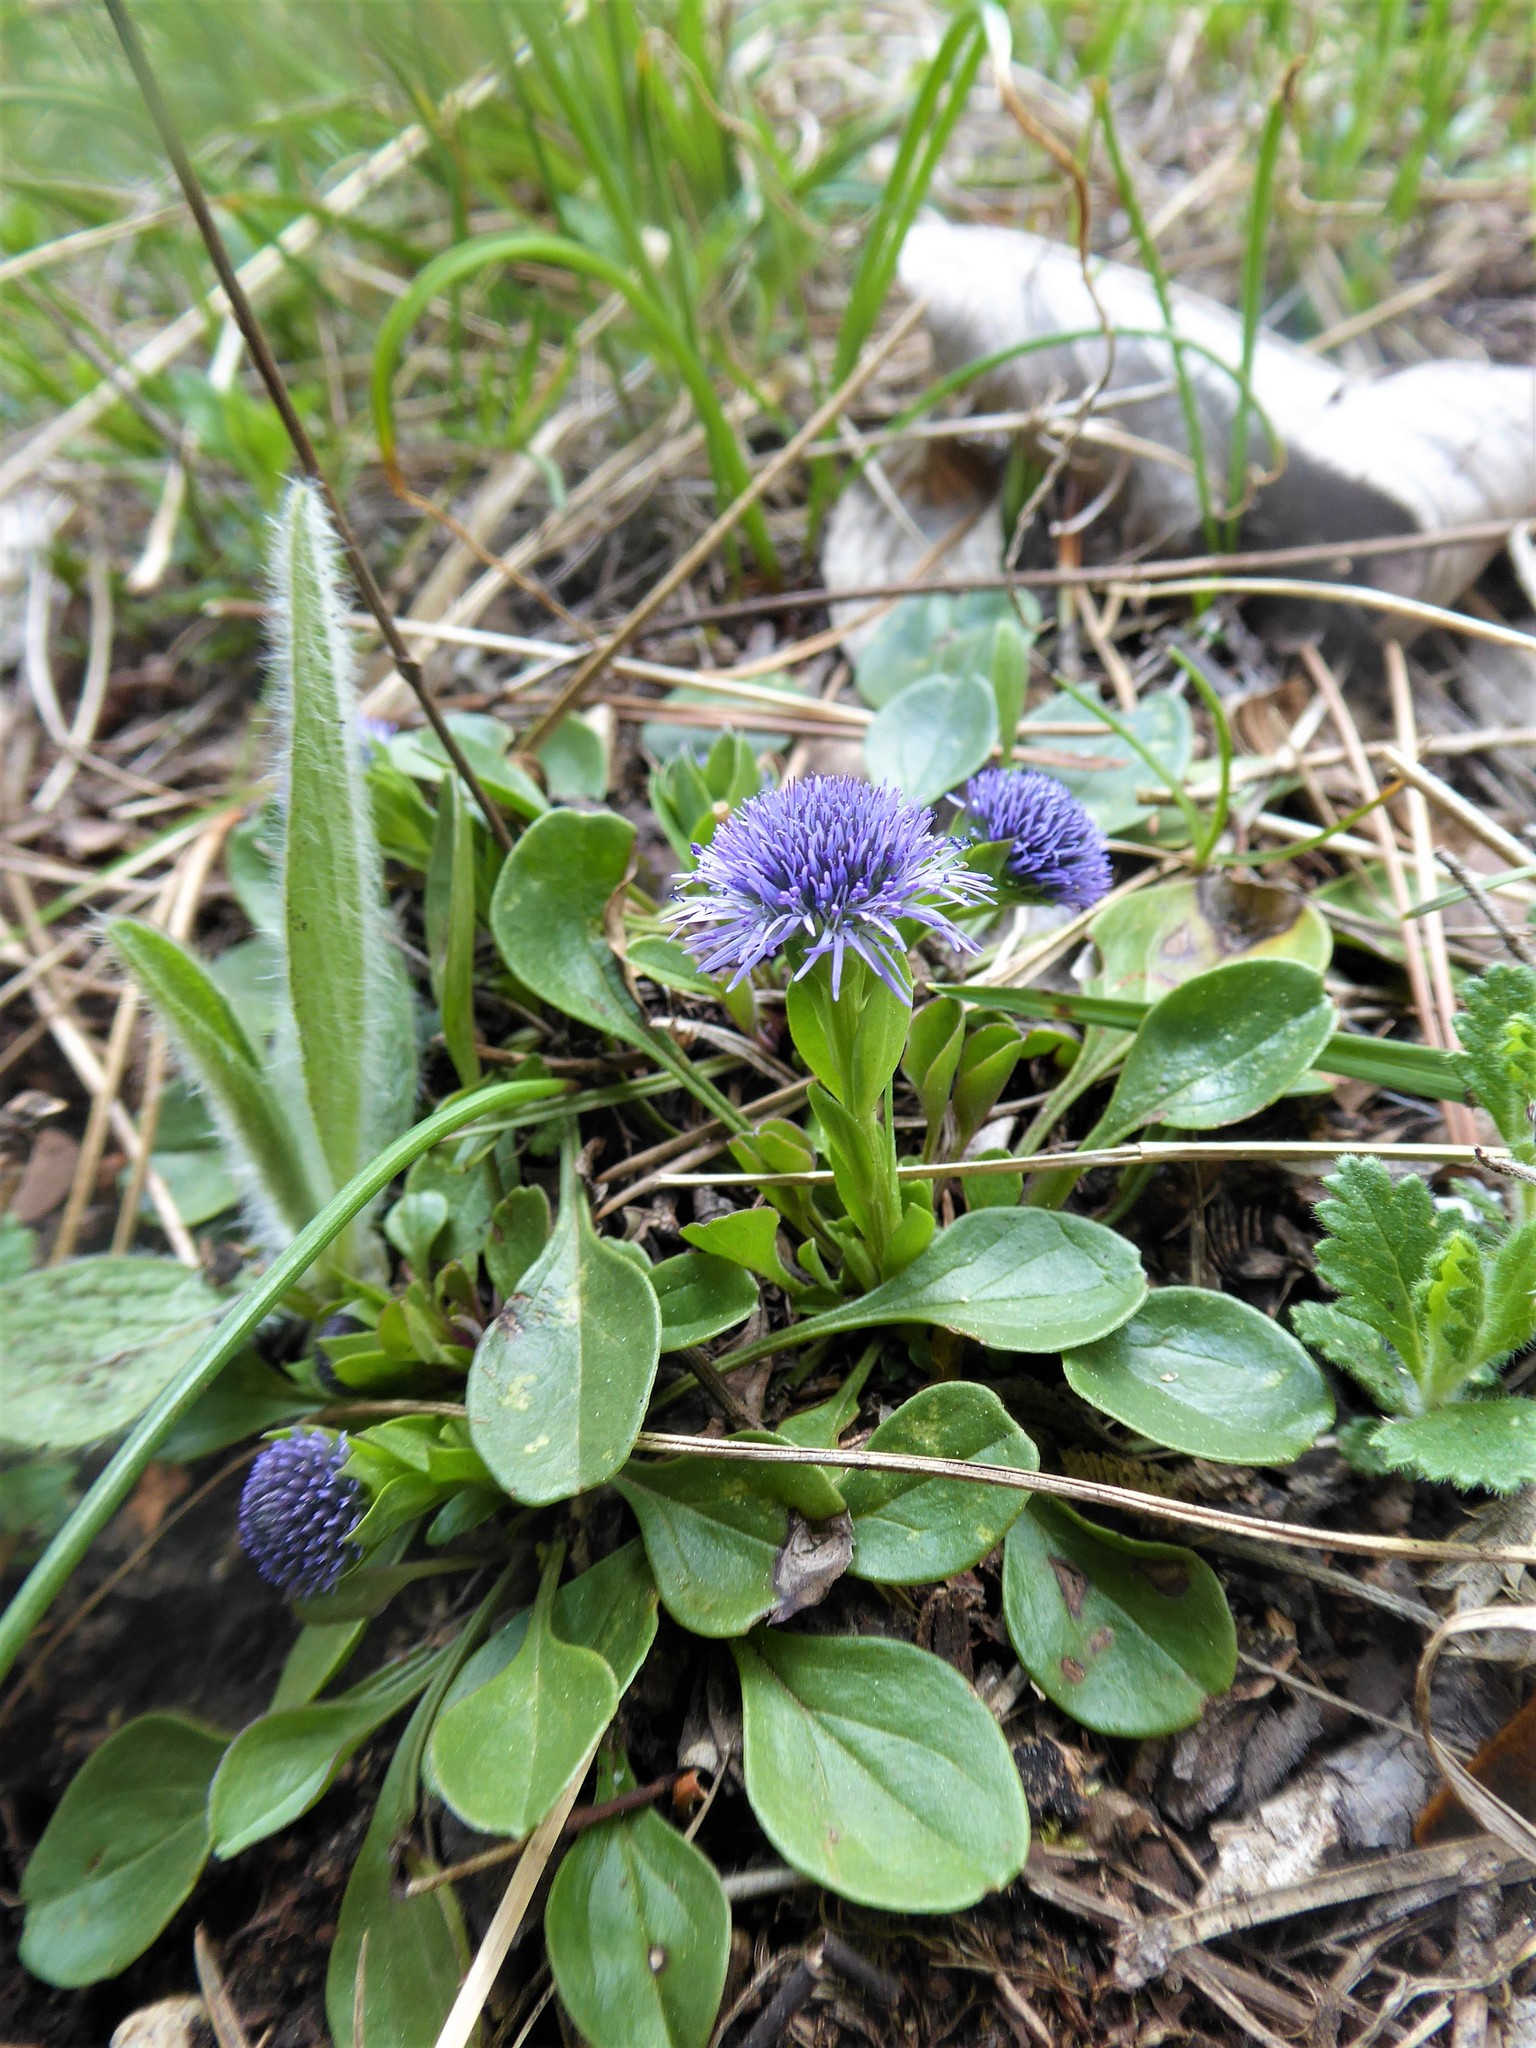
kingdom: Plantae
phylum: Tracheophyta
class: Magnoliopsida
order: Lamiales
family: Plantaginaceae
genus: Globularia
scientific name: Globularia bisnagarica
